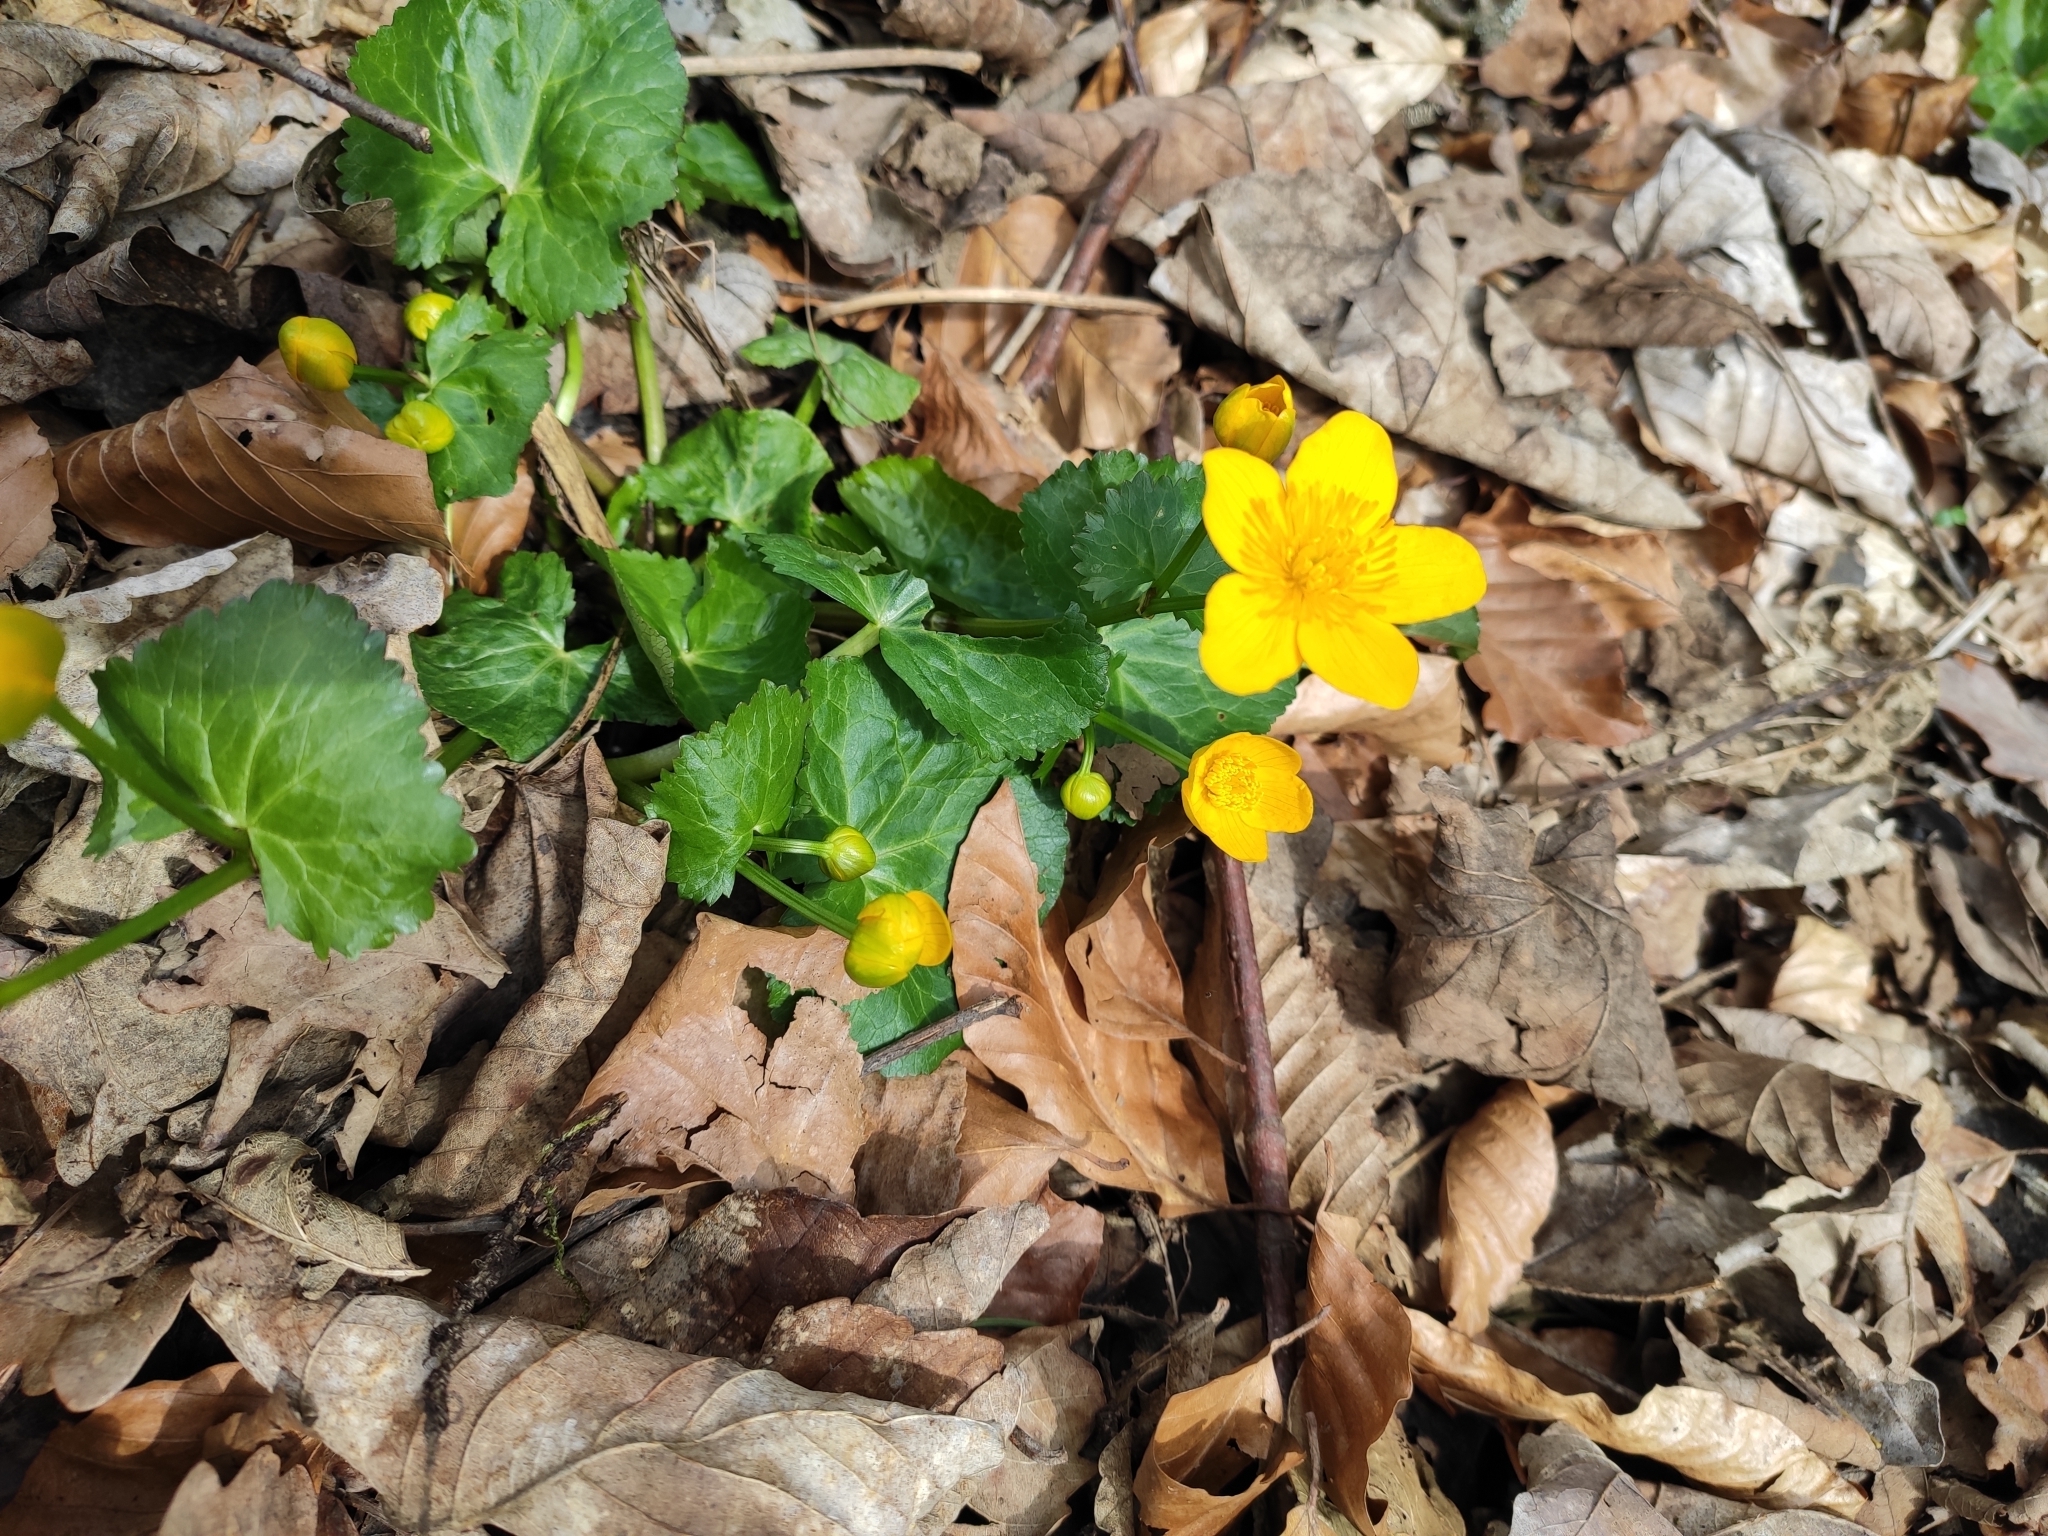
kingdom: Plantae
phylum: Tracheophyta
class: Magnoliopsida
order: Ranunculales
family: Ranunculaceae
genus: Caltha
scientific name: Caltha palustris
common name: Marsh marigold
